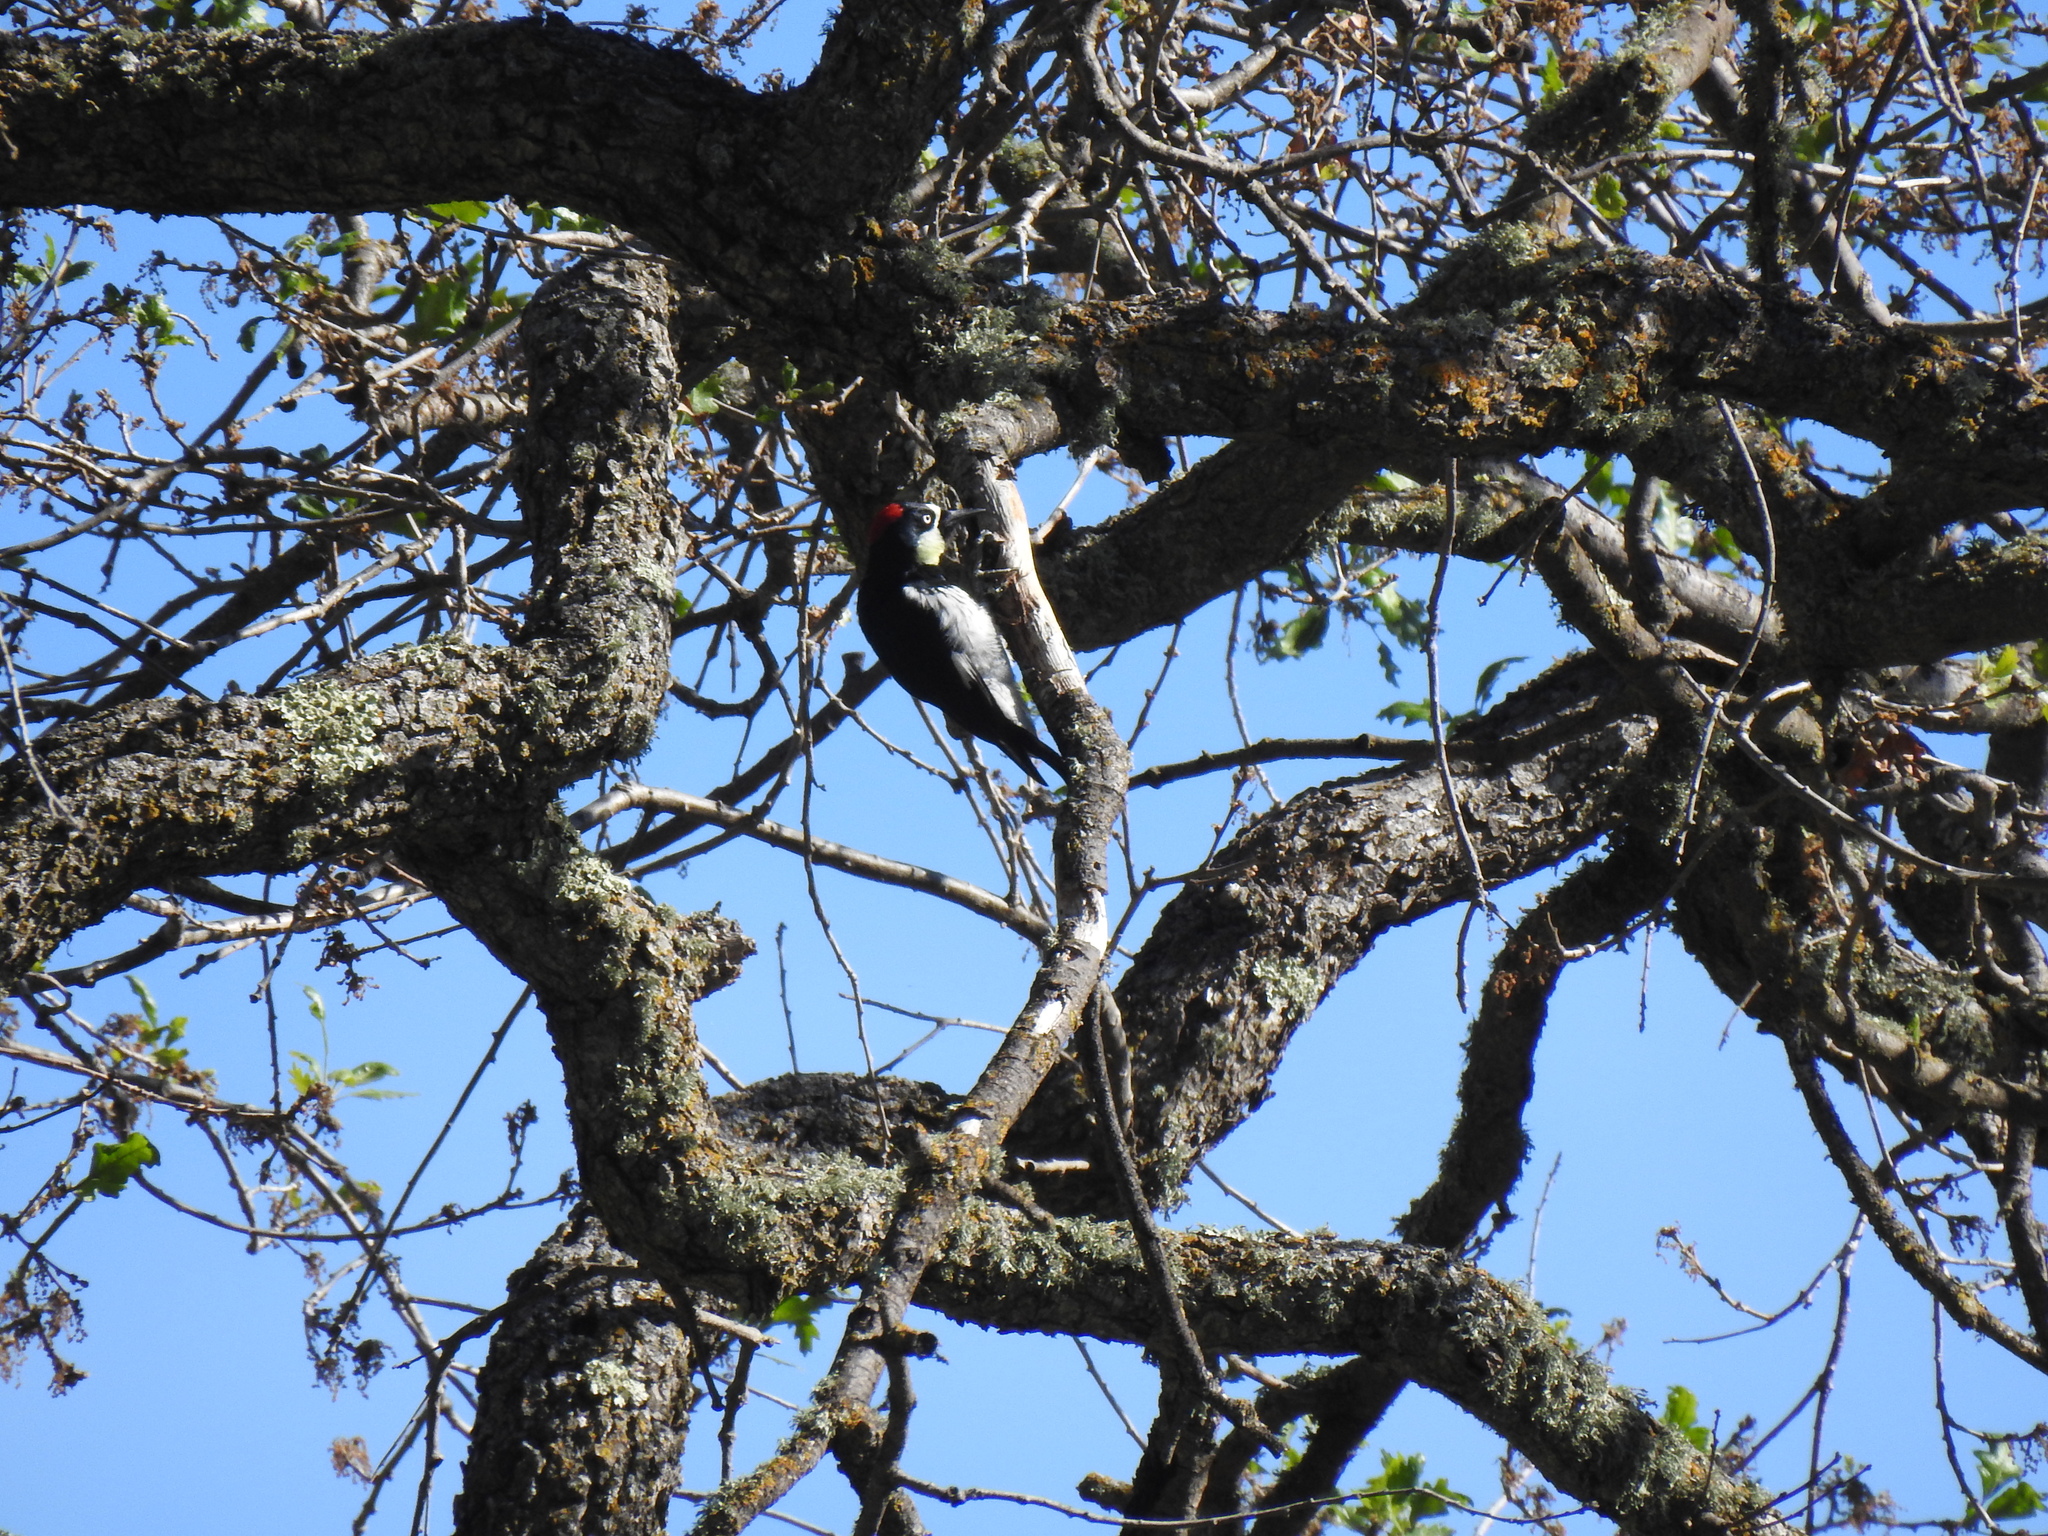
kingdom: Animalia
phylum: Chordata
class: Aves
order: Piciformes
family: Picidae
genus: Melanerpes
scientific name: Melanerpes formicivorus
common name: Acorn woodpecker
